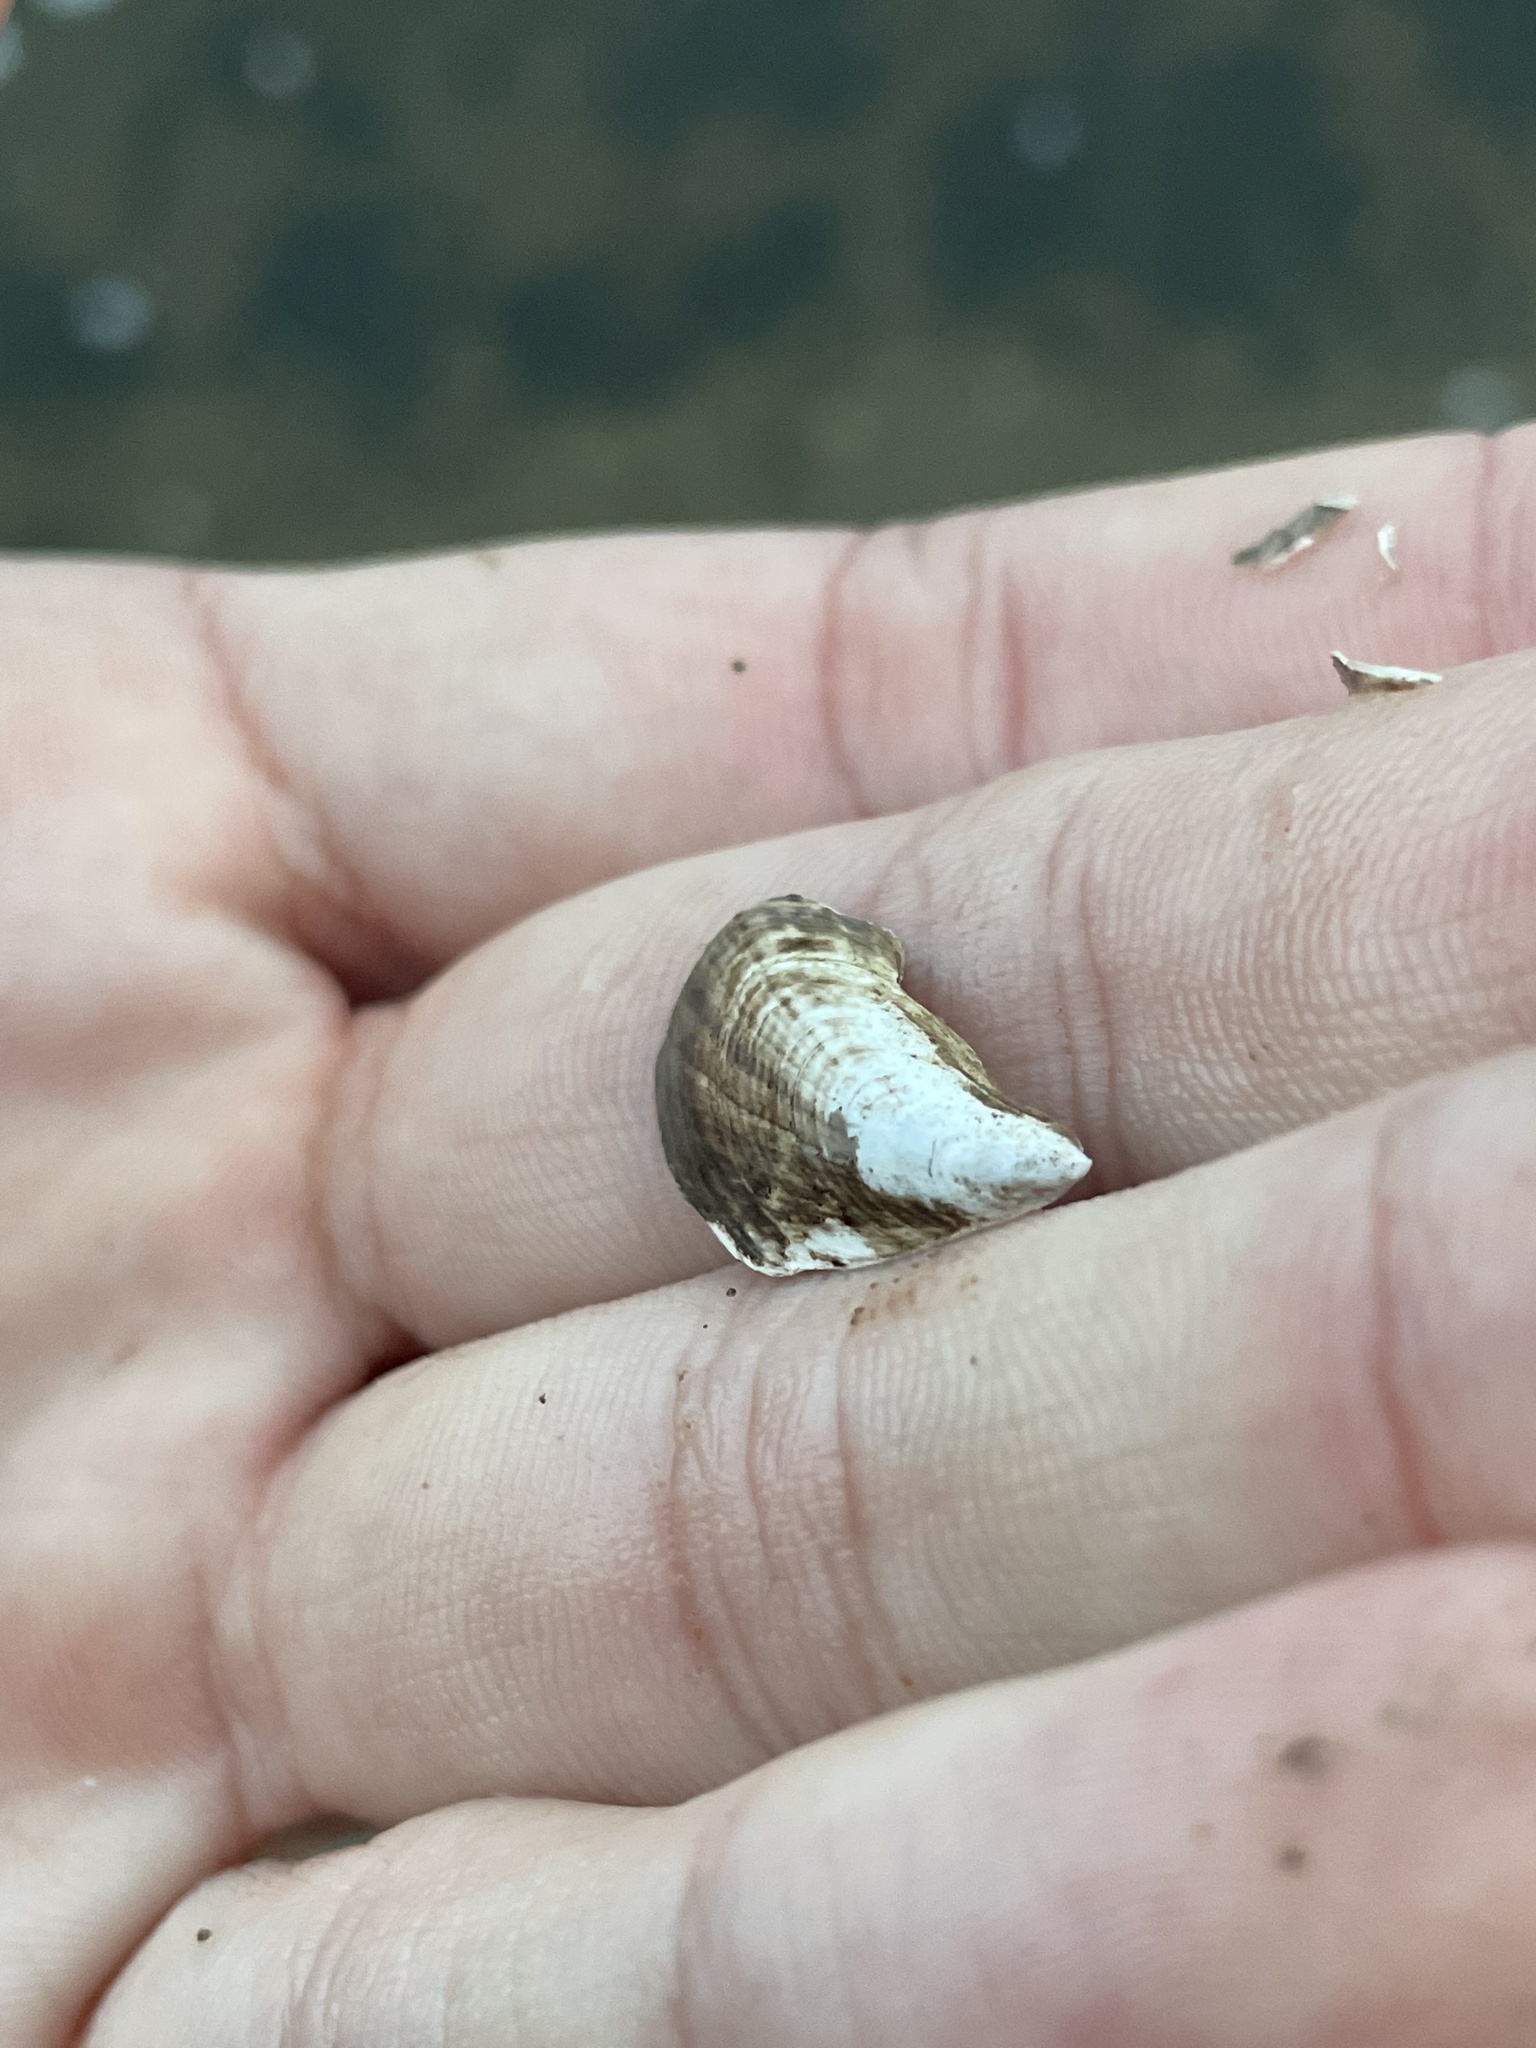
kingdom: Animalia
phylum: Mollusca
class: Bivalvia
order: Myida
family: Dreissenidae
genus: Dreissena
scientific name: Dreissena bugensis
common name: Quagga mussel
